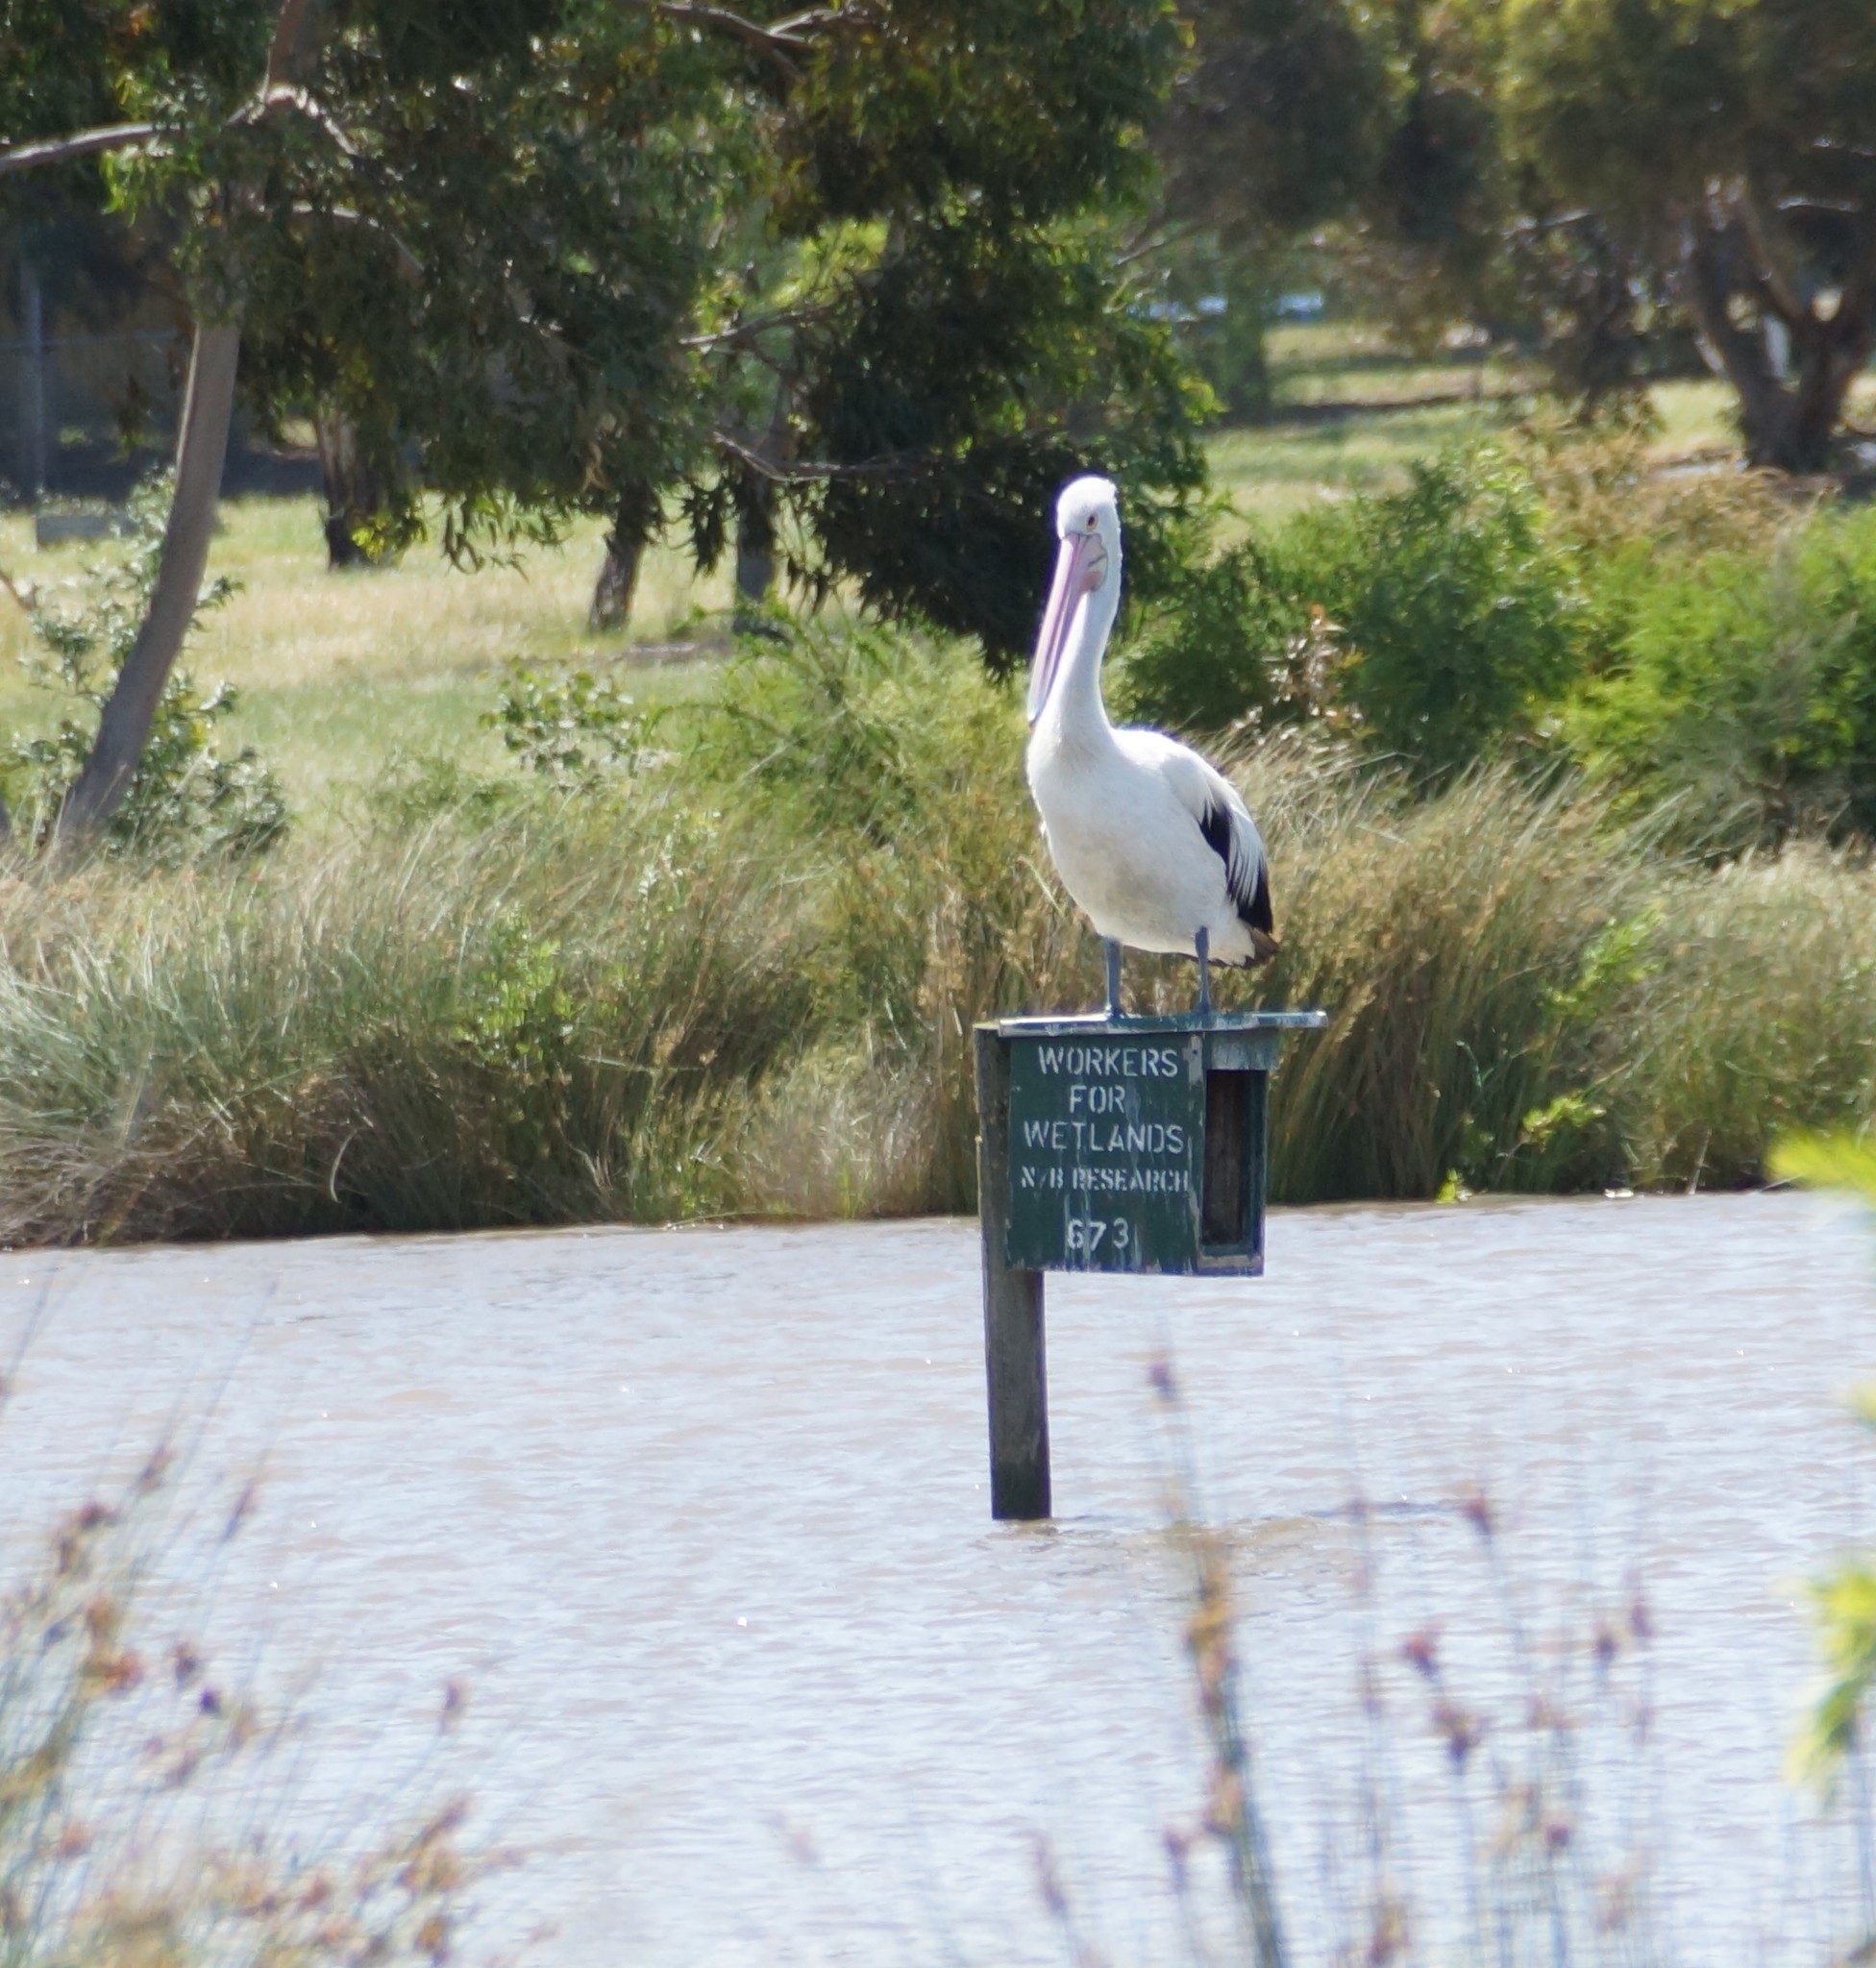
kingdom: Animalia
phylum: Chordata
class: Aves
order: Pelecaniformes
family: Pelecanidae
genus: Pelecanus
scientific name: Pelecanus conspicillatus
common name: Australian pelican
